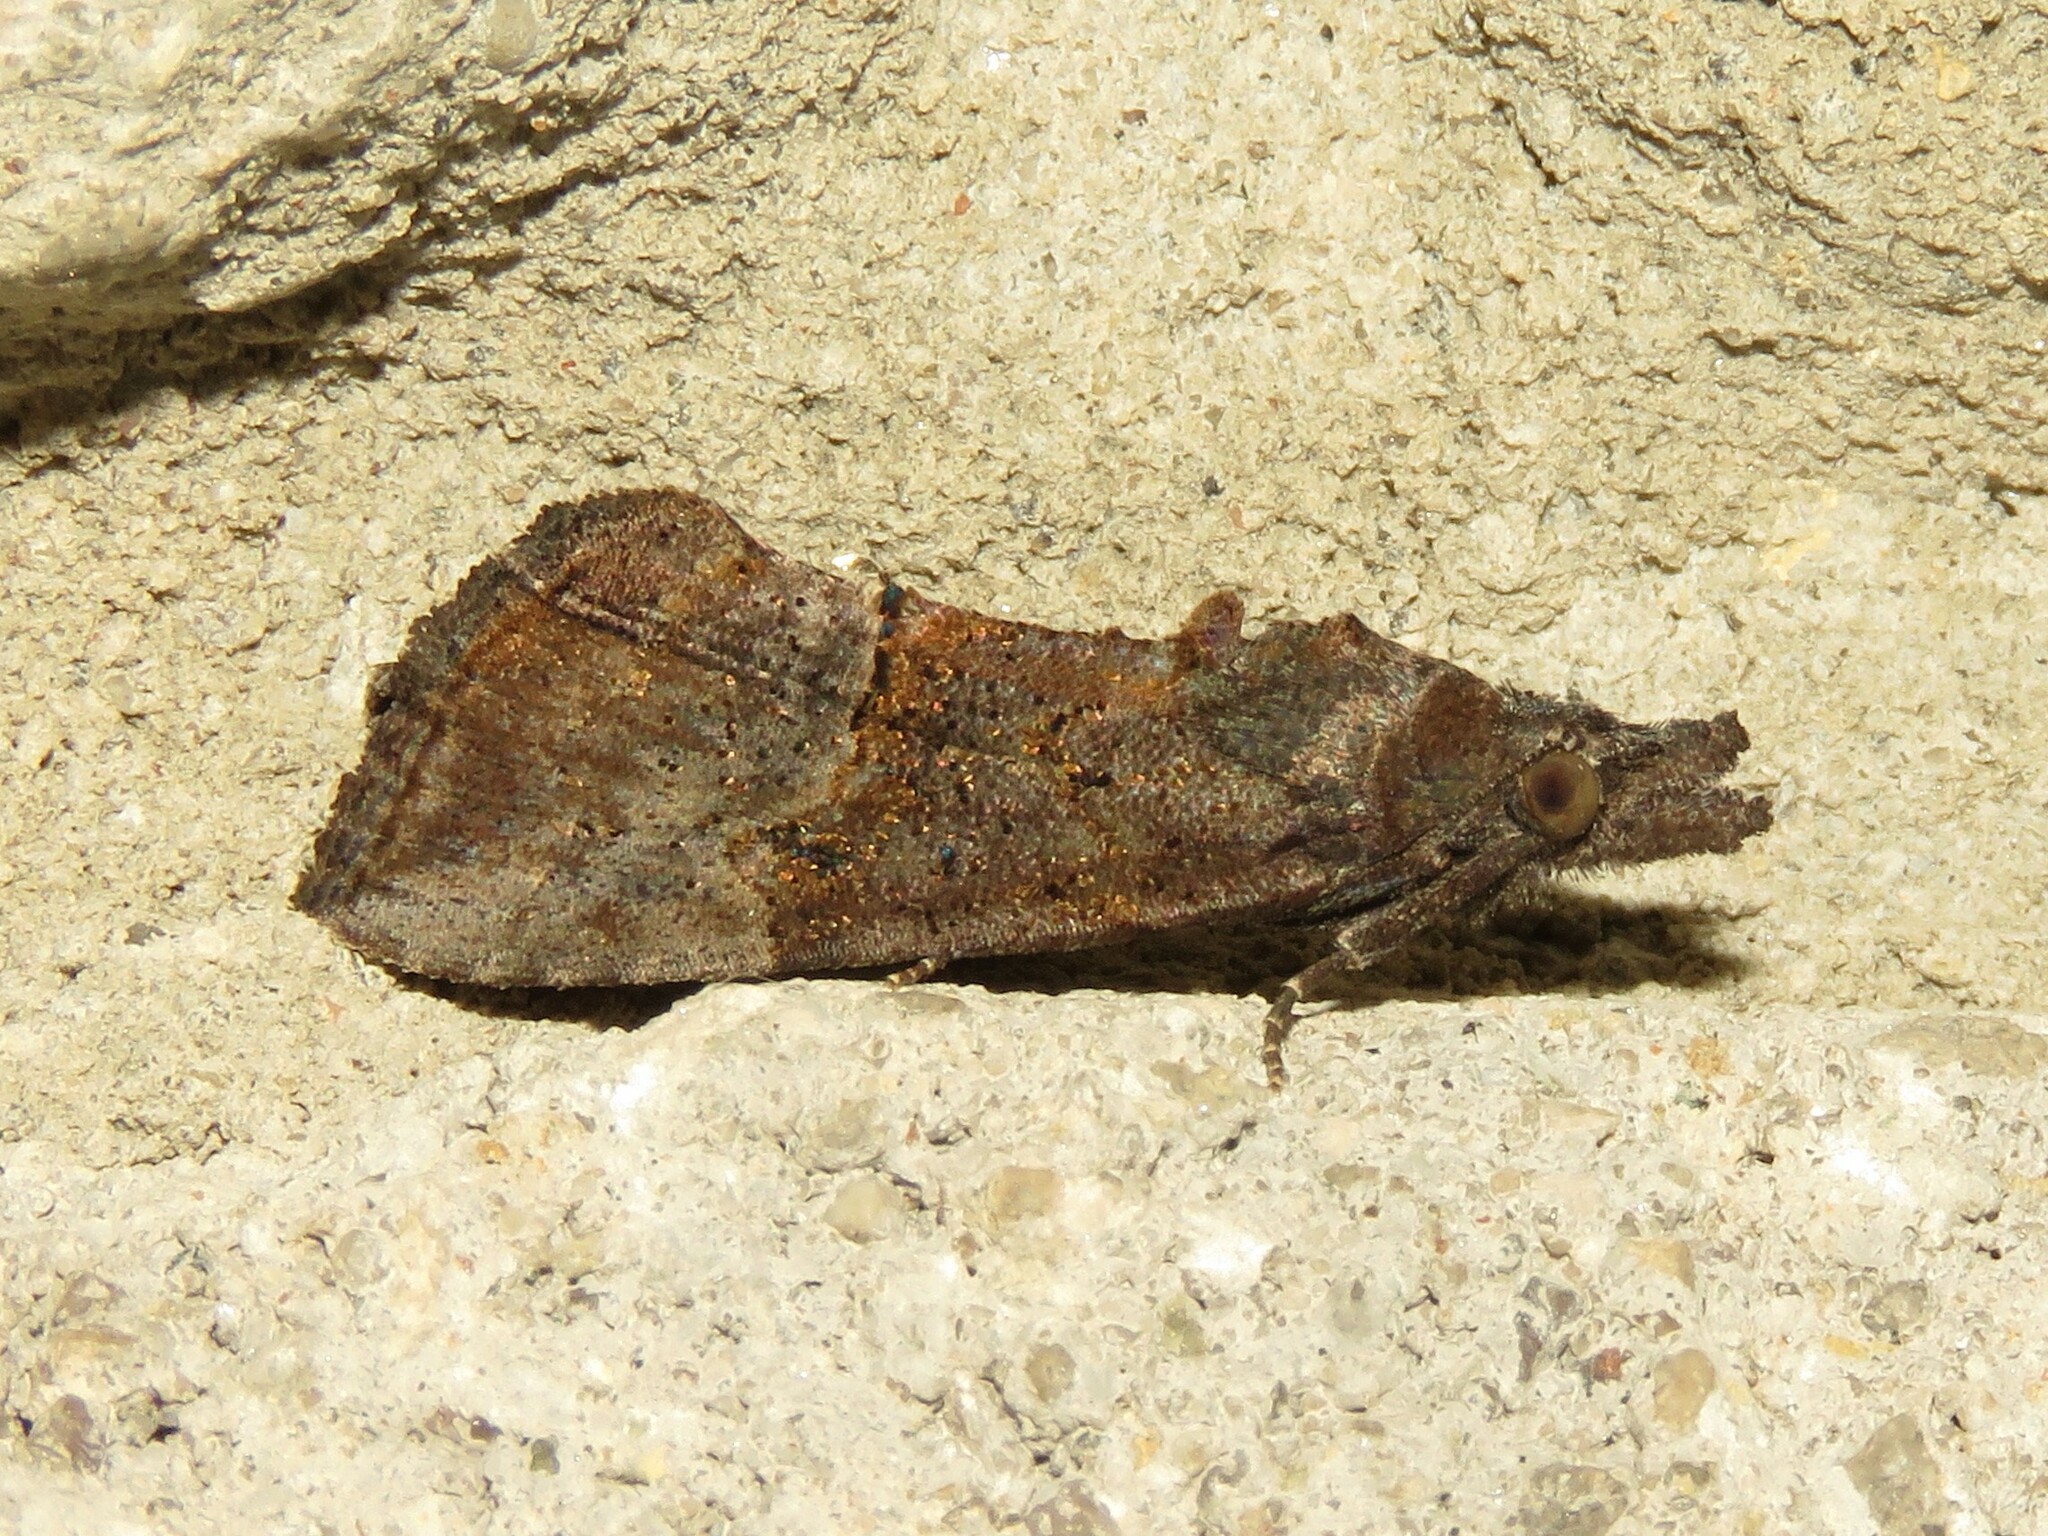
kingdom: Animalia
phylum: Arthropoda
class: Insecta
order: Lepidoptera
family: Erebidae
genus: Hypena
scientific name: Hypena scabra
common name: Green cloverworm
